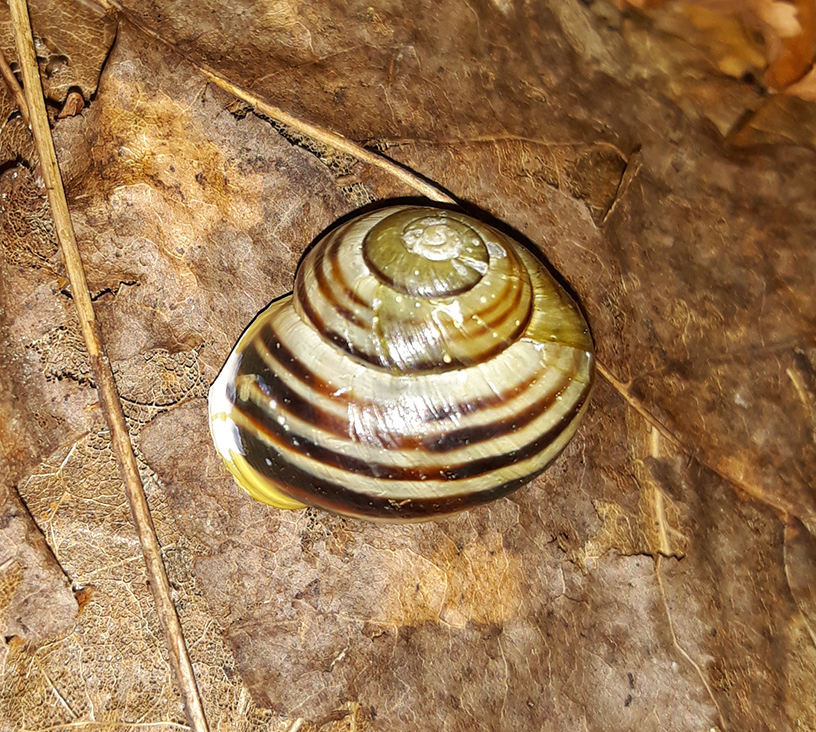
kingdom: Animalia
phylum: Mollusca
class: Gastropoda
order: Stylommatophora
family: Helicidae
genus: Cepaea
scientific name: Cepaea hortensis
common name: White-lip gardensnail
